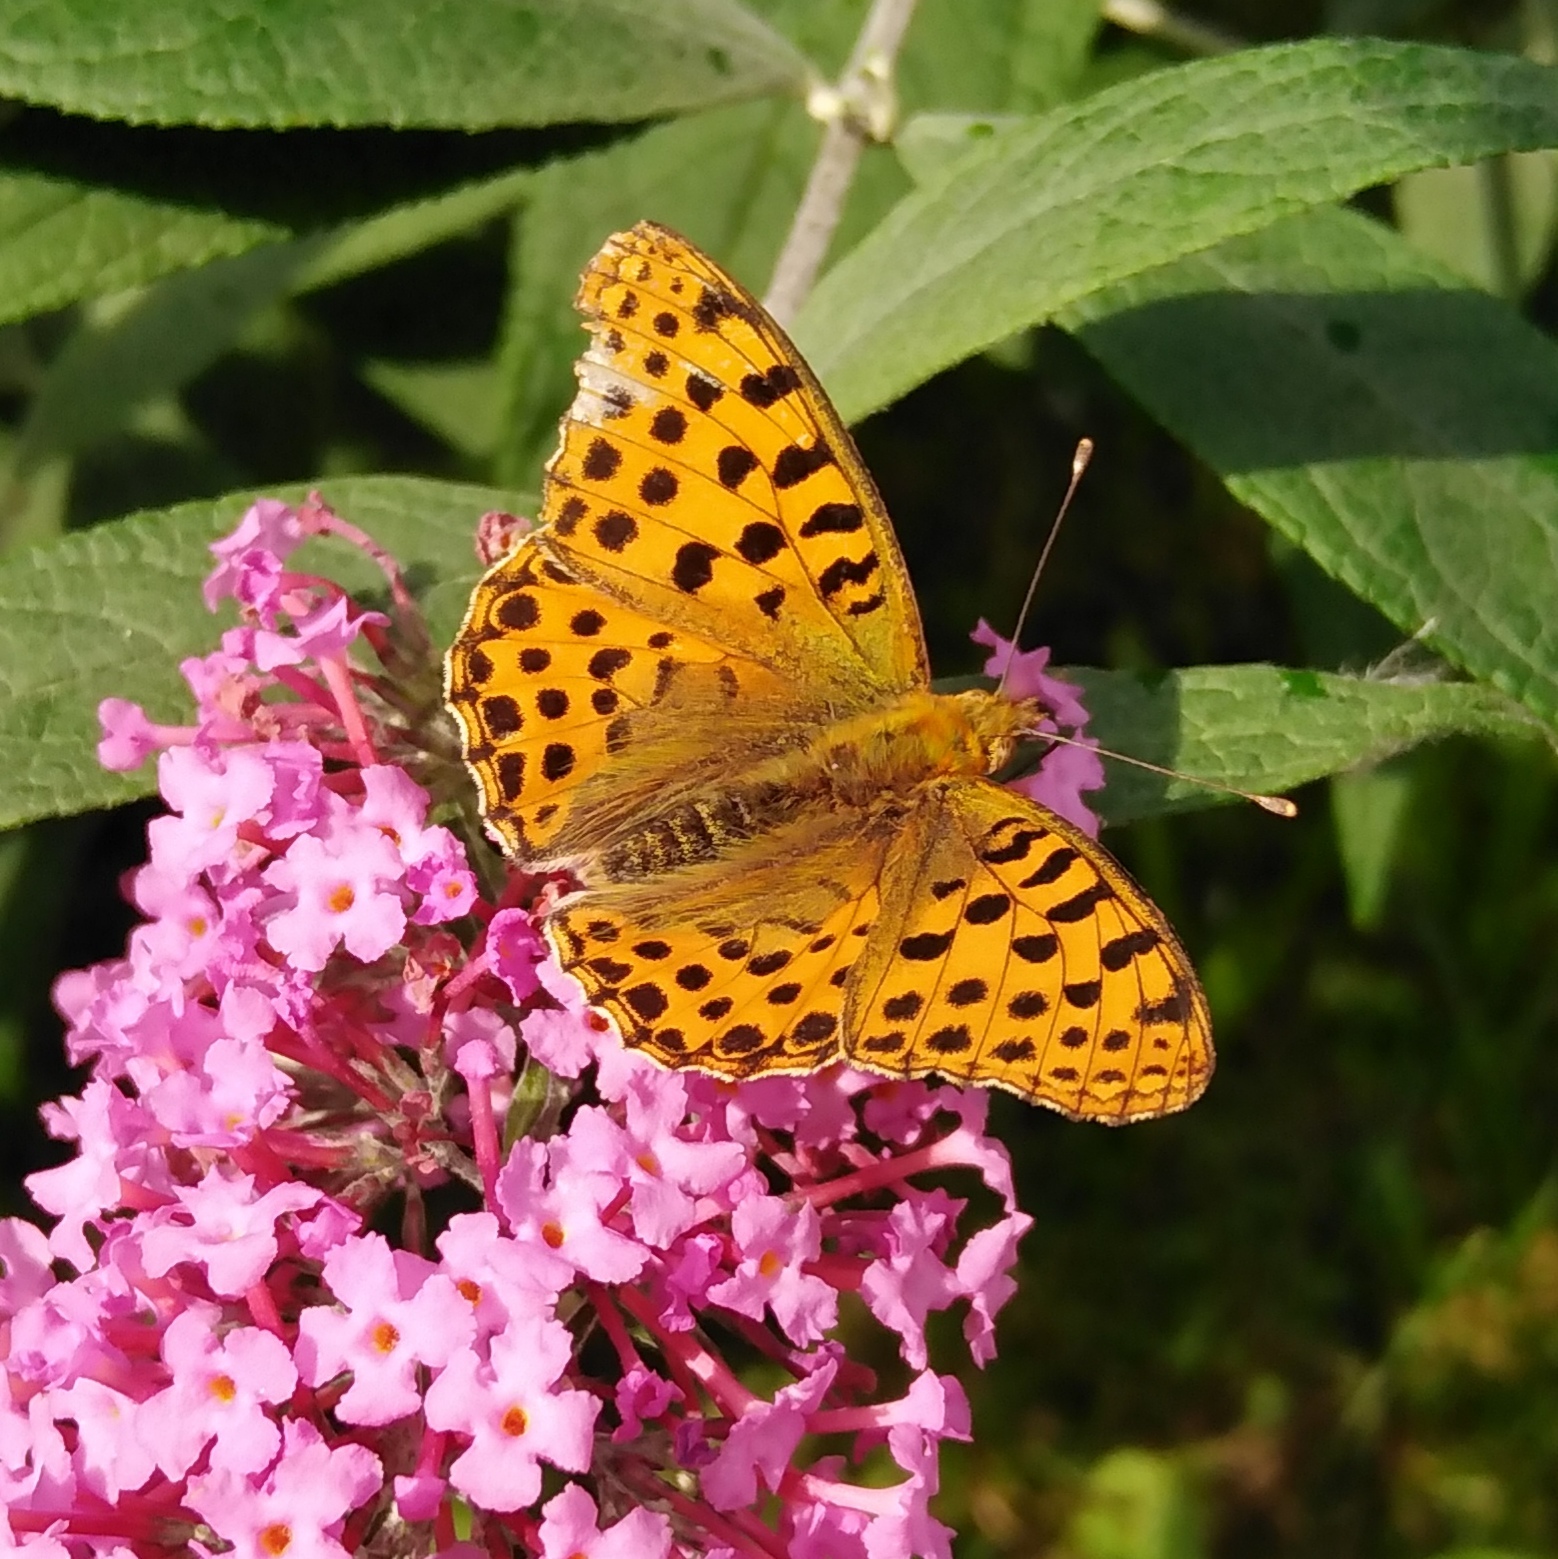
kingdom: Animalia
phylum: Arthropoda
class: Insecta
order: Lepidoptera
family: Nymphalidae
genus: Issoria
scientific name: Issoria lathonia
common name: Queen of spain fritillary
